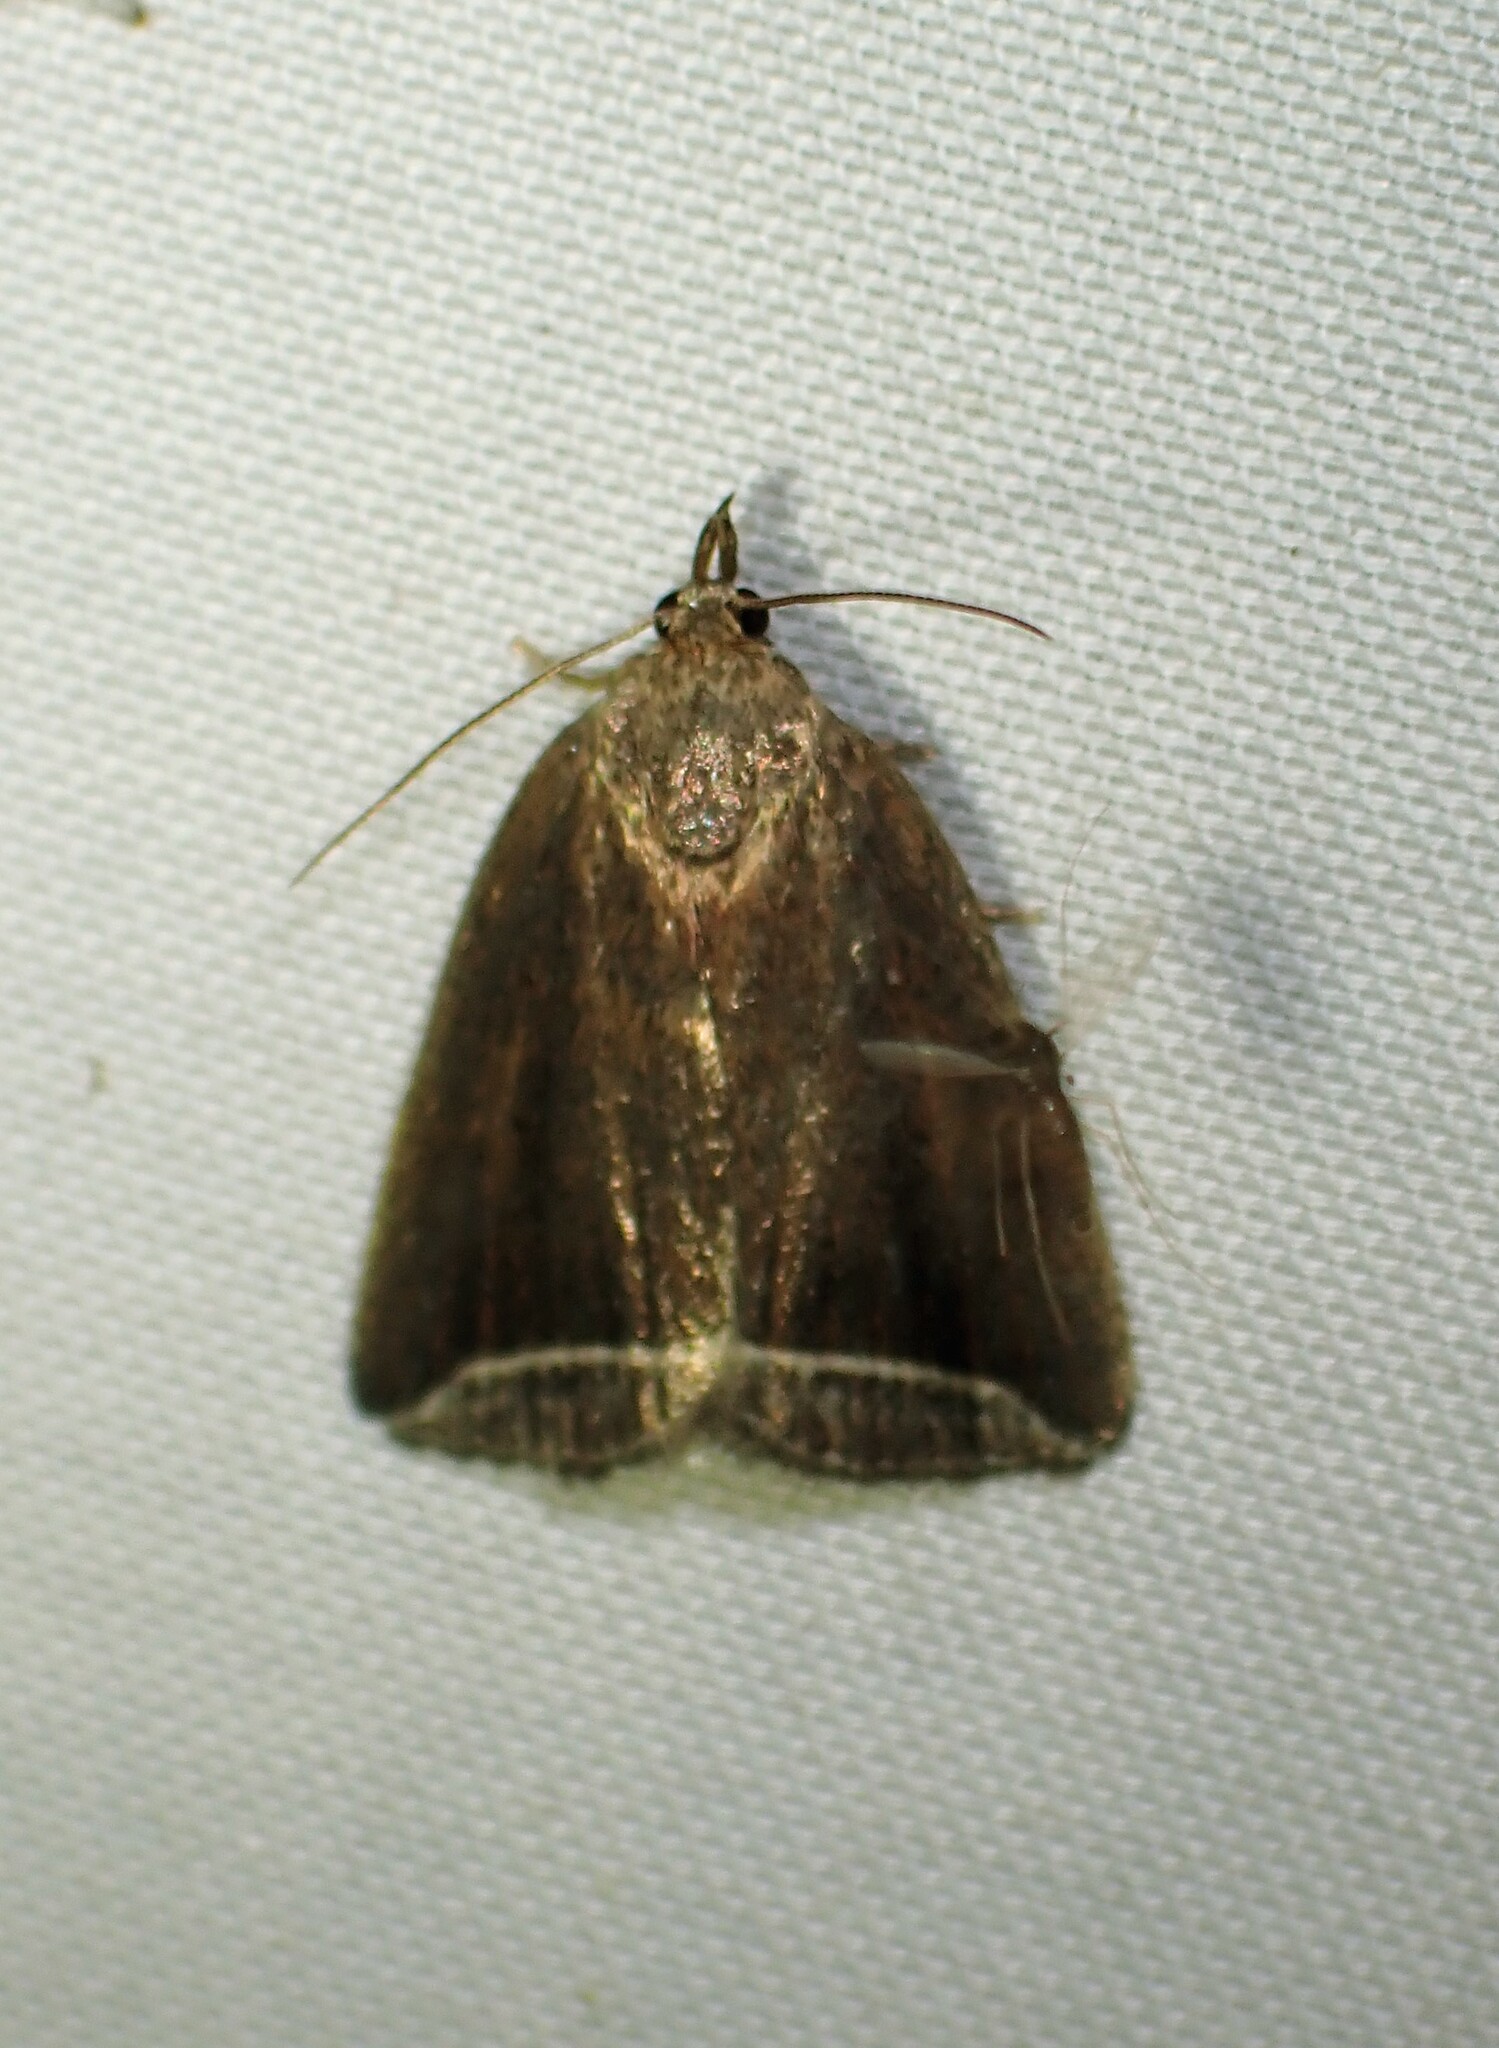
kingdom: Animalia
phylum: Arthropoda
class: Insecta
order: Lepidoptera
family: Erebidae
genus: Capis
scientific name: Capis curvata
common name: Curved halter moth
